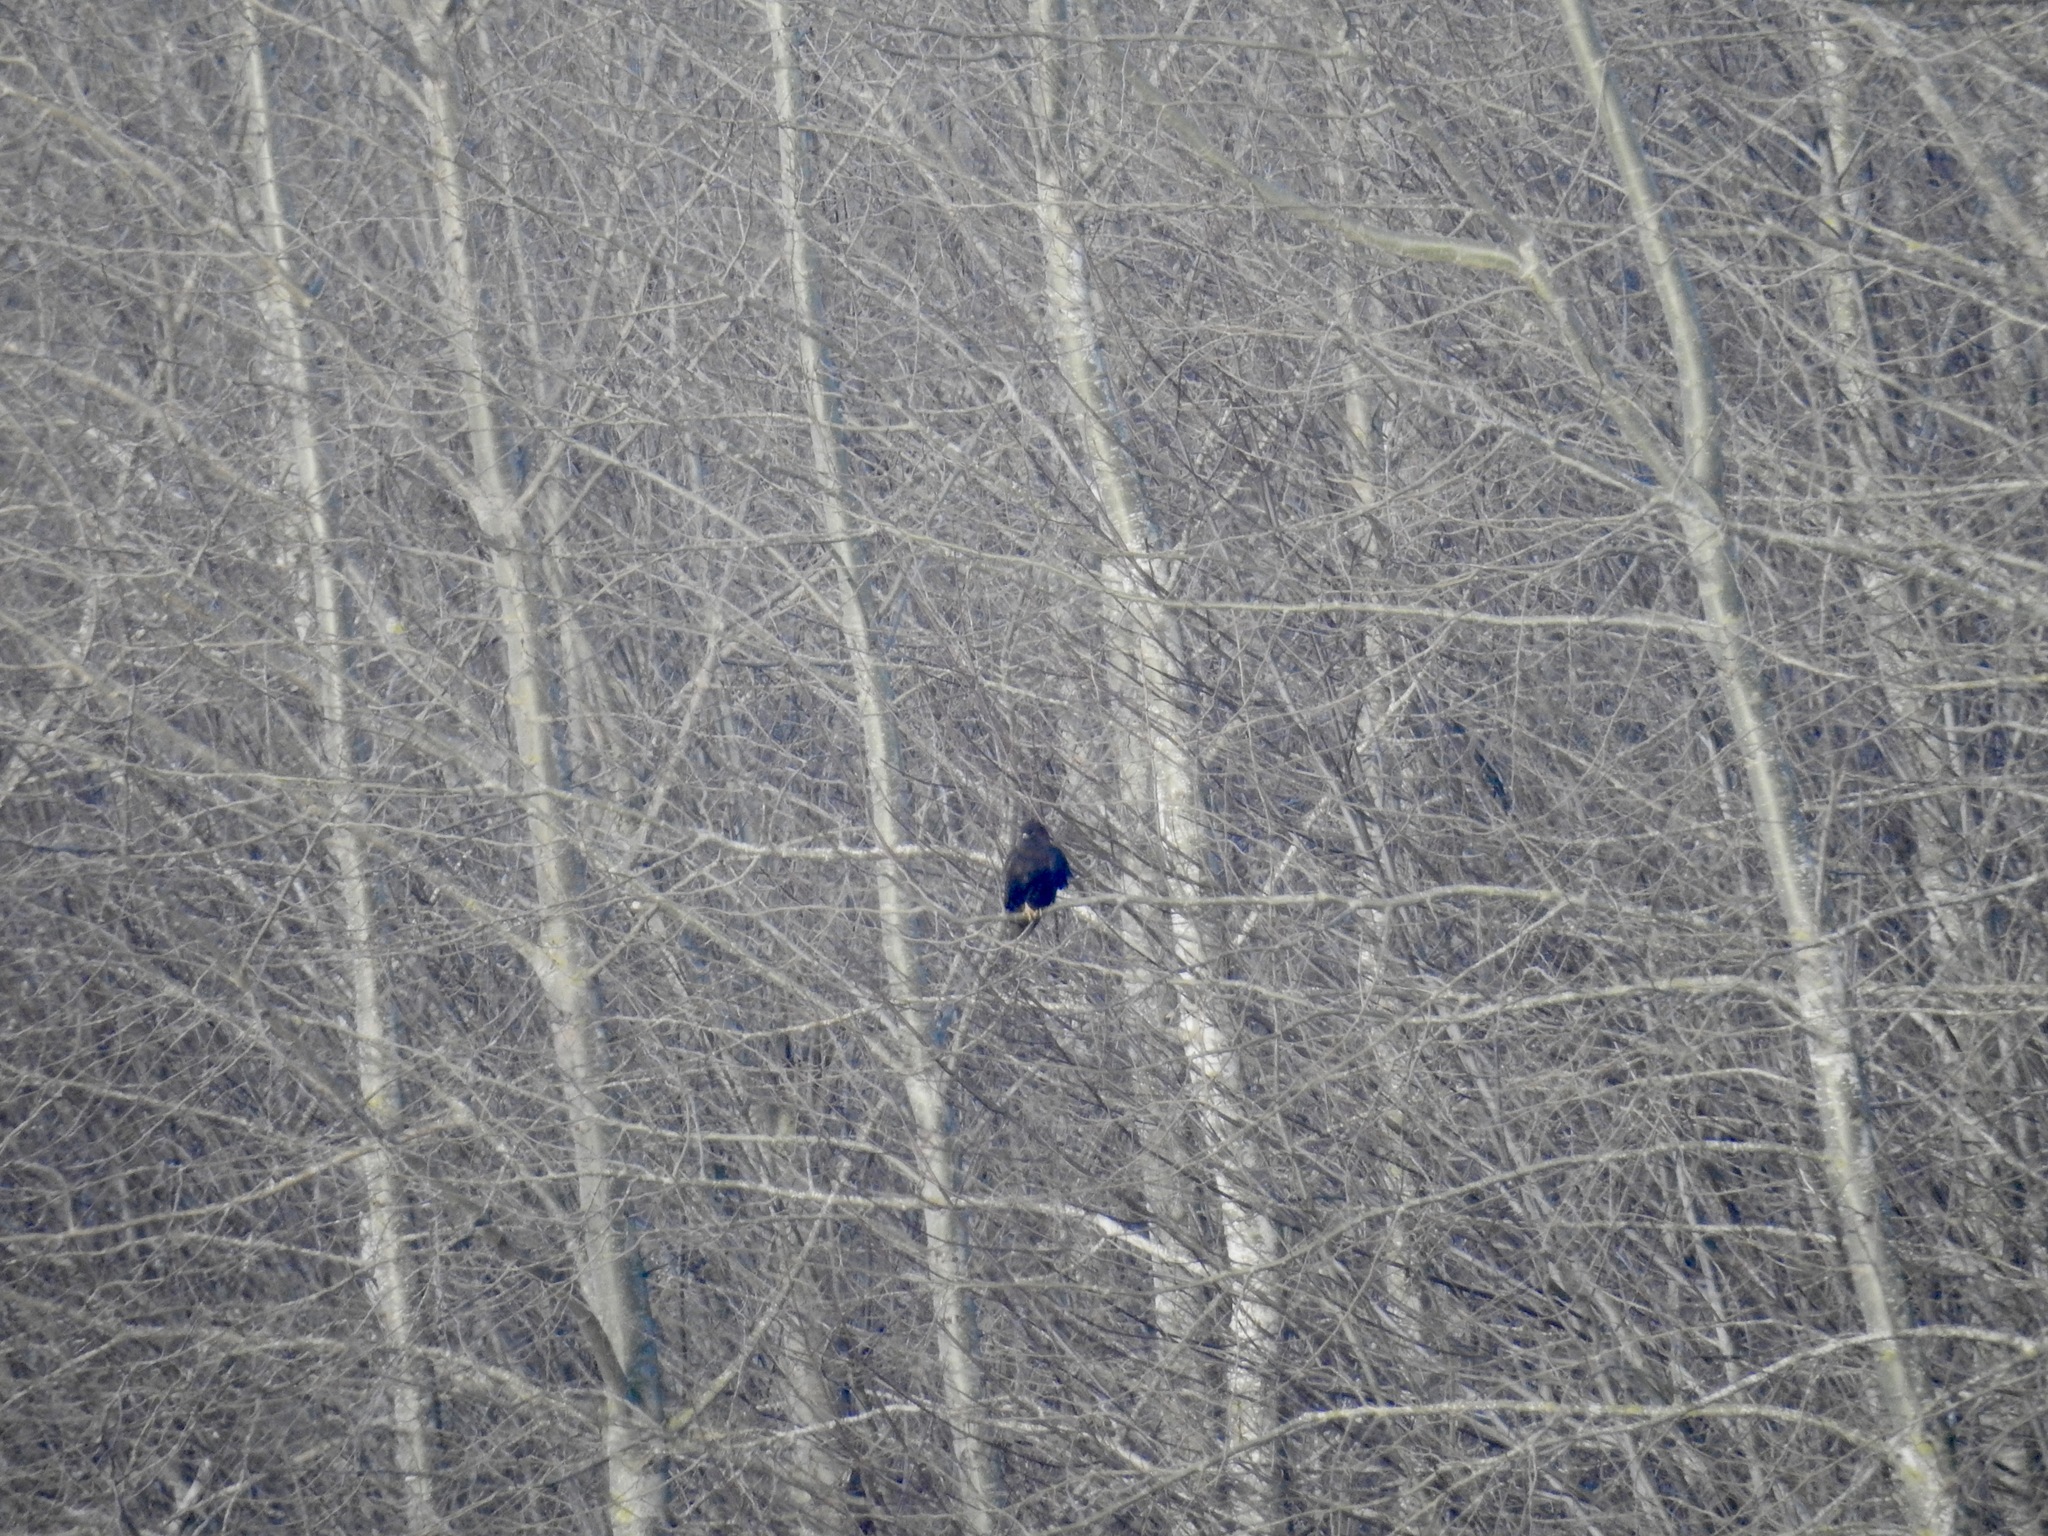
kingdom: Animalia
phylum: Chordata
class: Aves
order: Accipitriformes
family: Accipitridae
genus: Buteo
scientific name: Buteo jamaicensis
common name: Red-tailed hawk
